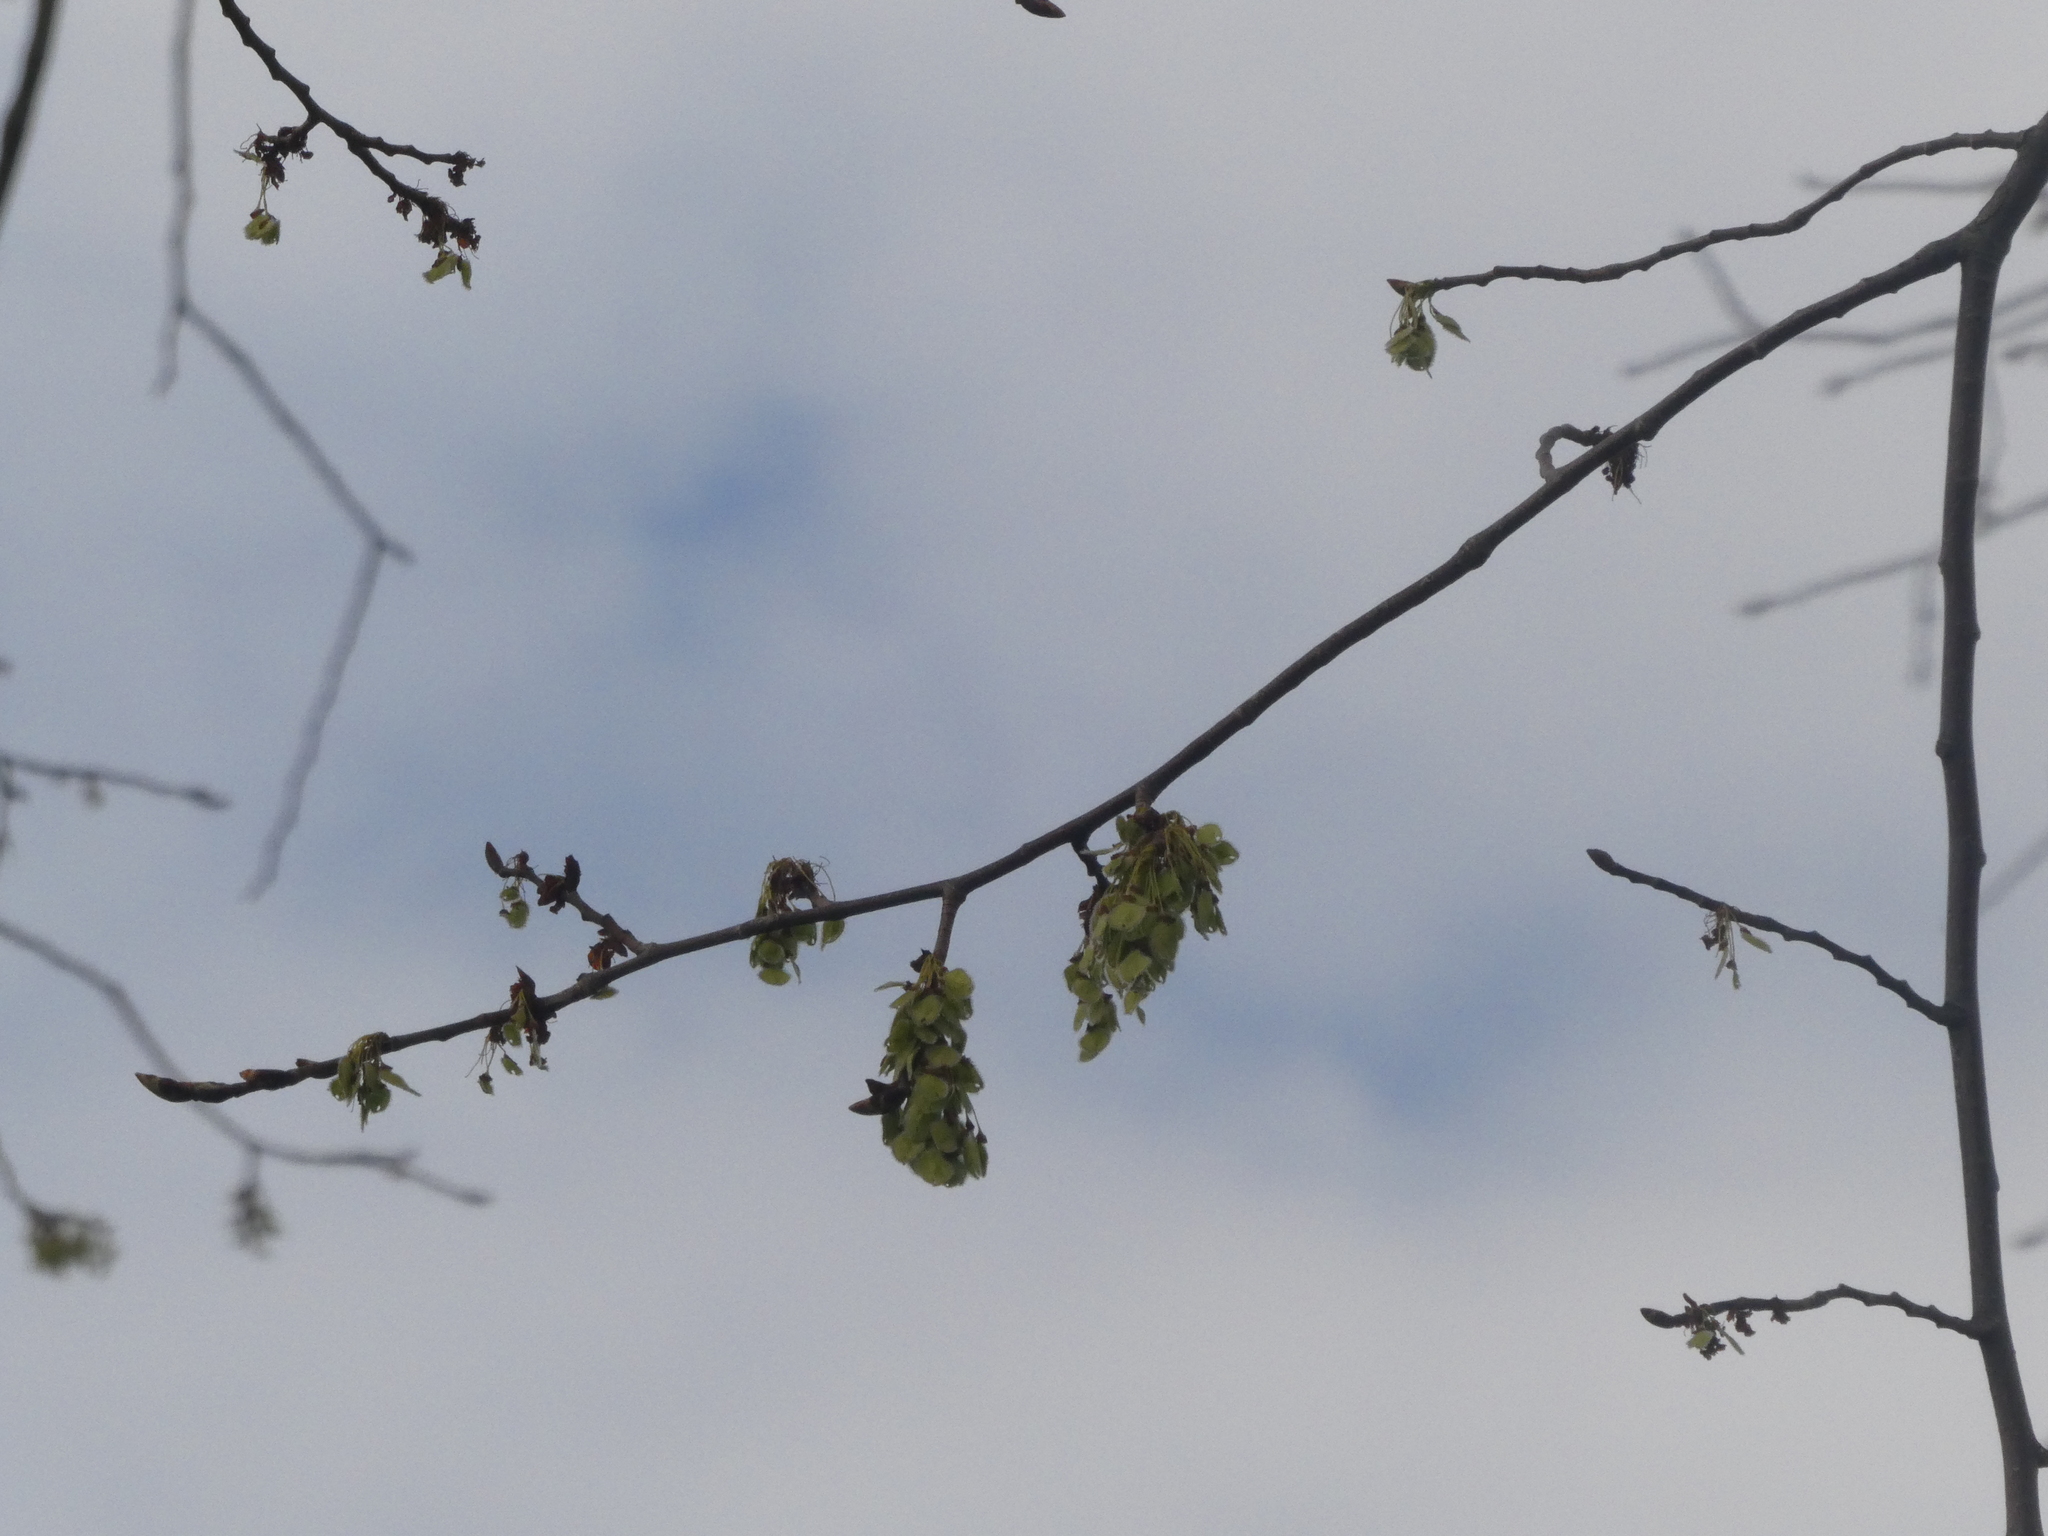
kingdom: Plantae
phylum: Tracheophyta
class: Magnoliopsida
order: Rosales
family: Ulmaceae
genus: Ulmus
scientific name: Ulmus americana
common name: American elm
